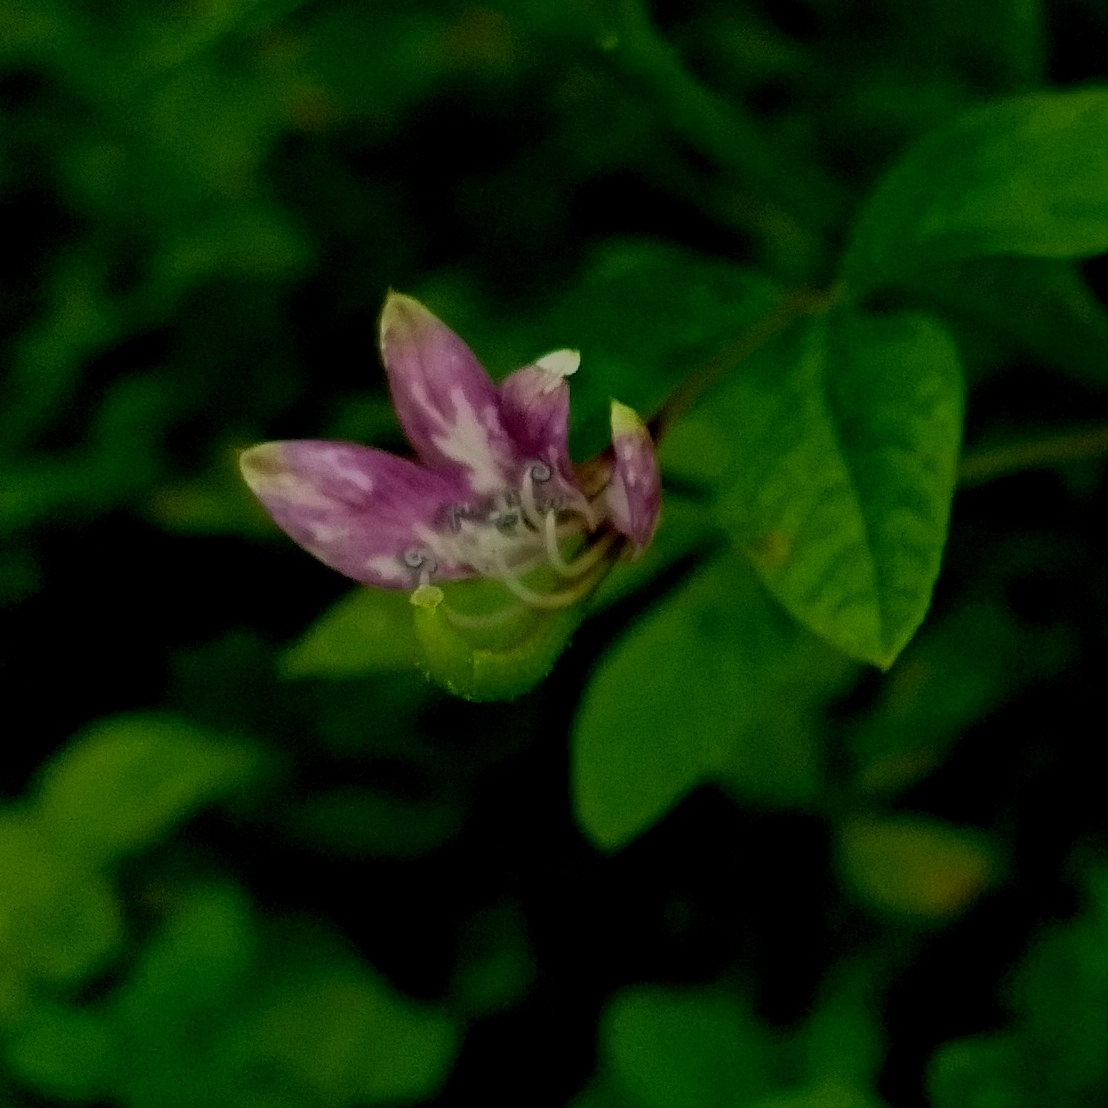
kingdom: Plantae
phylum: Tracheophyta
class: Magnoliopsida
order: Brassicales
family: Cleomaceae
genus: Sieruela
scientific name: Sieruela rutidosperma
